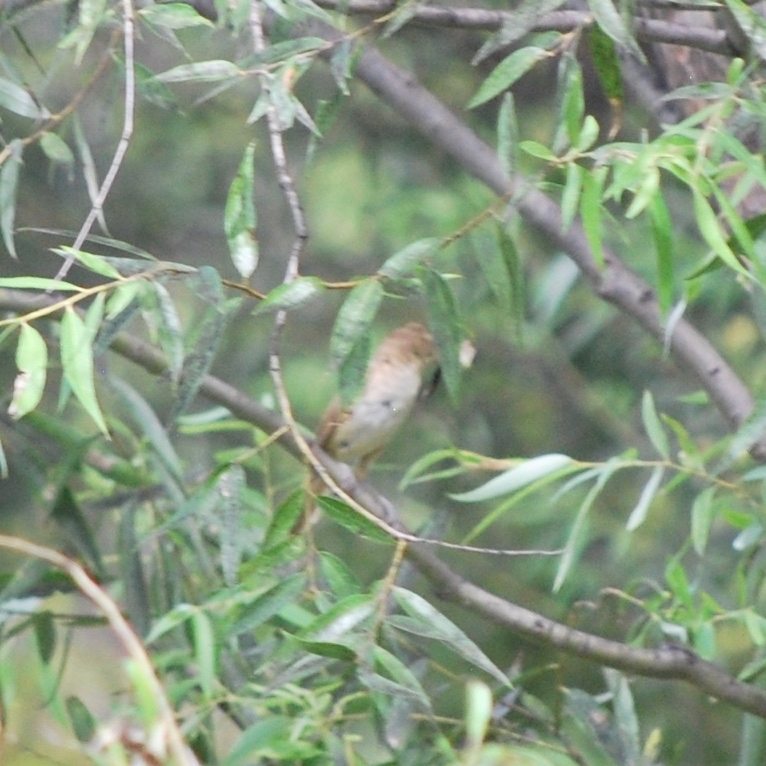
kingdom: Animalia
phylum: Chordata
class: Aves
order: Passeriformes
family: Acrocephalidae
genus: Acrocephalus
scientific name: Acrocephalus orientalis
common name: Oriental reed warbler
